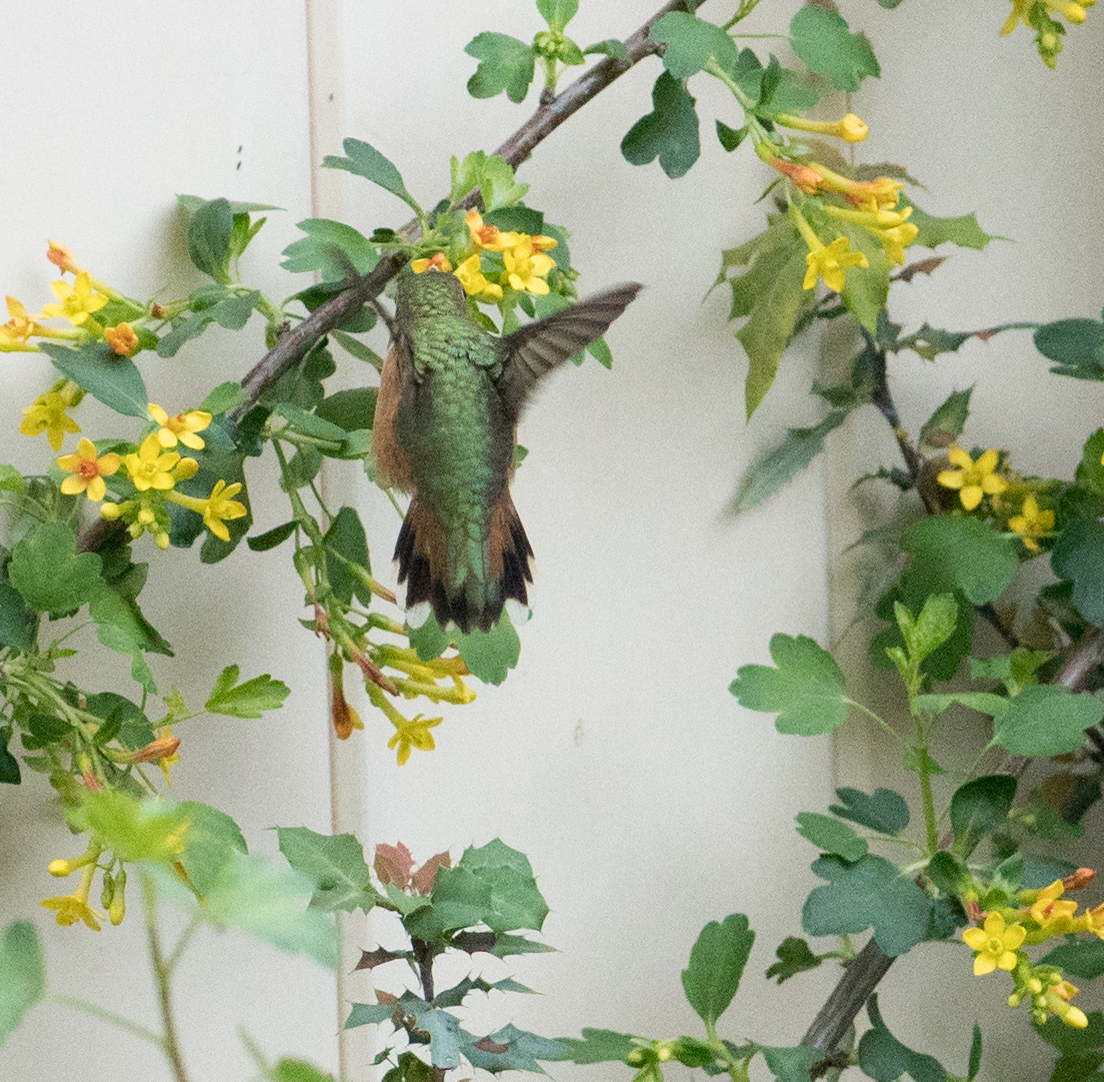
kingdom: Animalia
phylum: Chordata
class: Aves
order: Apodiformes
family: Trochilidae
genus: Selasphorus
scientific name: Selasphorus sasin
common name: Allen's hummingbird
